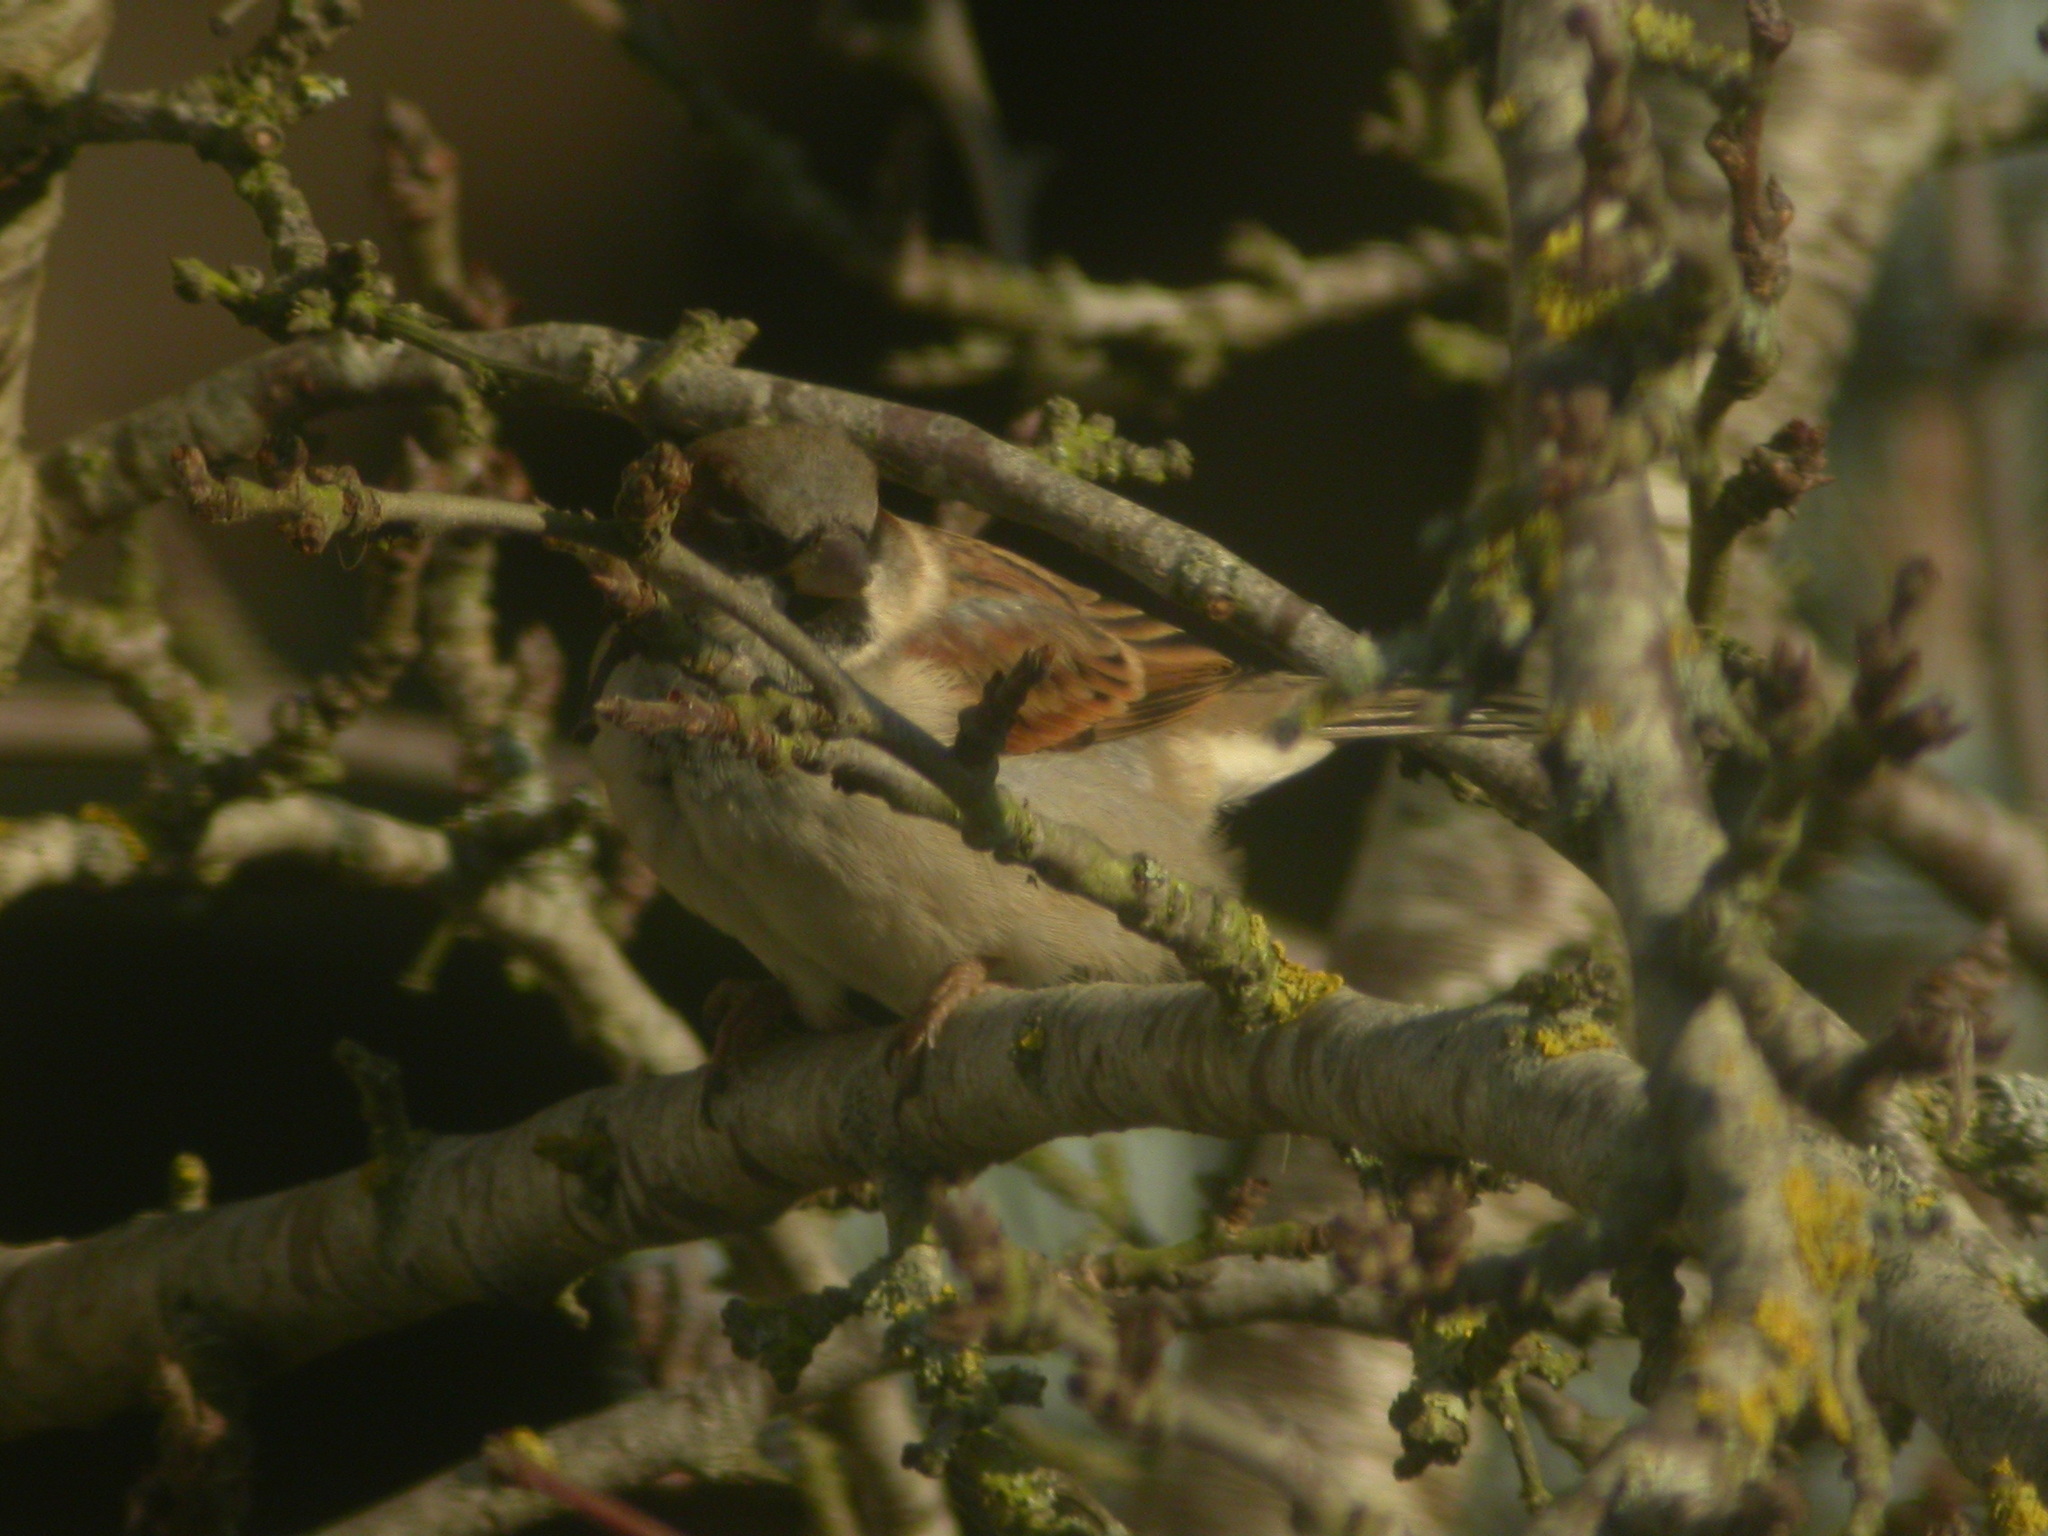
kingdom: Animalia
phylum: Chordata
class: Aves
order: Passeriformes
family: Passeridae
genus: Passer
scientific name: Passer domesticus
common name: House sparrow
